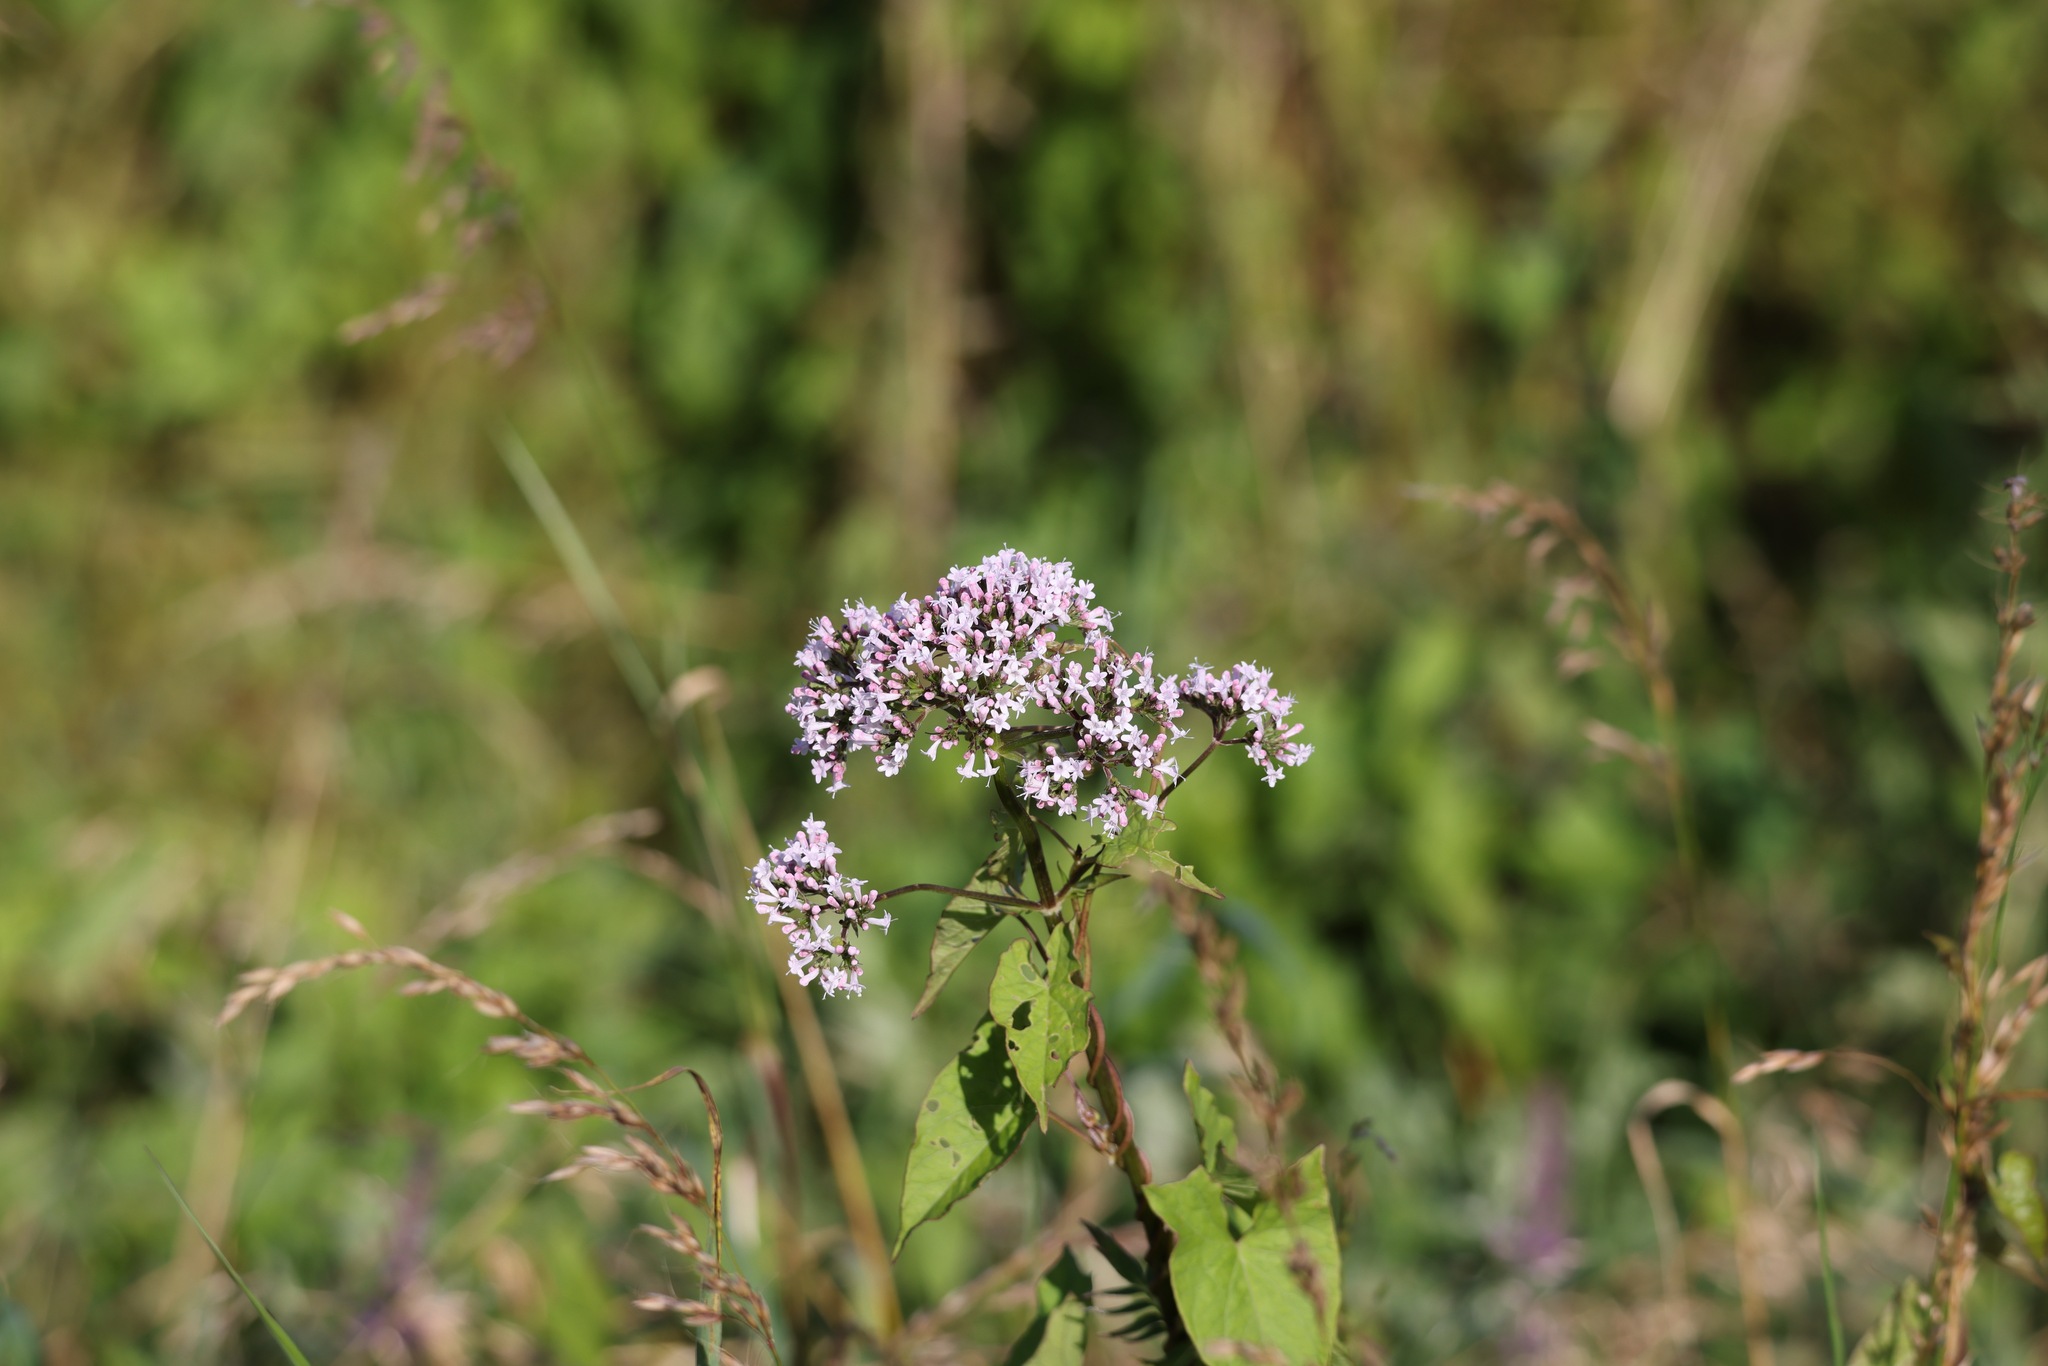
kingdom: Plantae
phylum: Tracheophyta
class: Magnoliopsida
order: Dipsacales
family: Caprifoliaceae
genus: Valeriana
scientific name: Valeriana officinalis
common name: Common valerian
